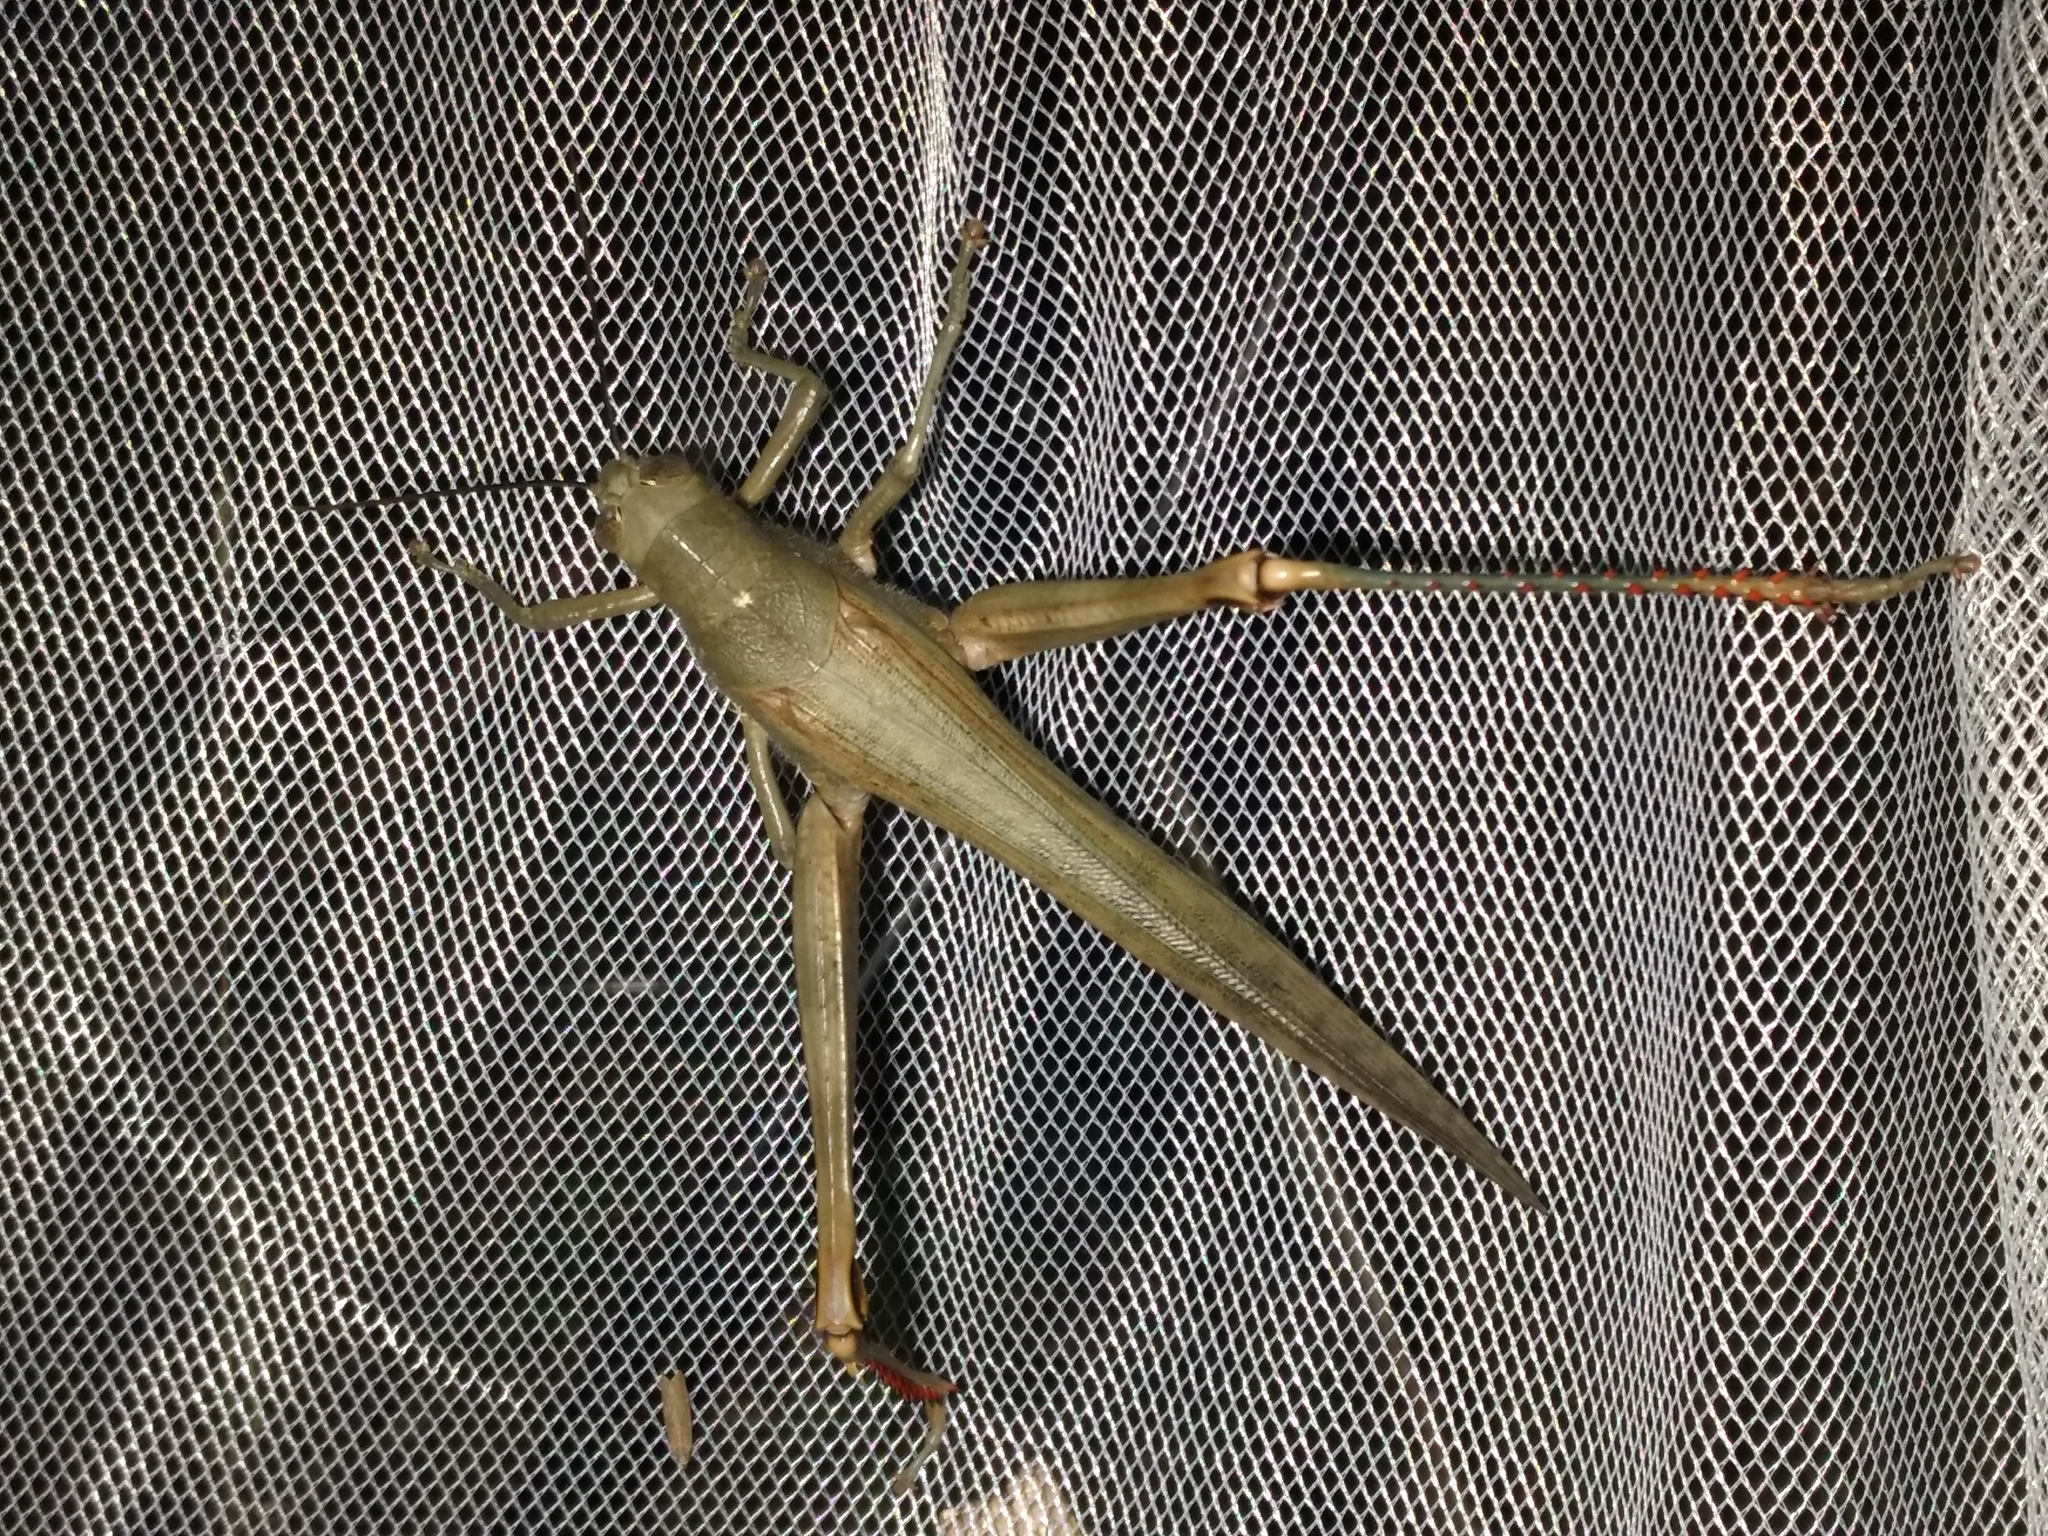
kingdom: Animalia
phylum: Arthropoda
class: Insecta
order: Orthoptera
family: Acrididae
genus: Valanga
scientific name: Valanga irregularis
